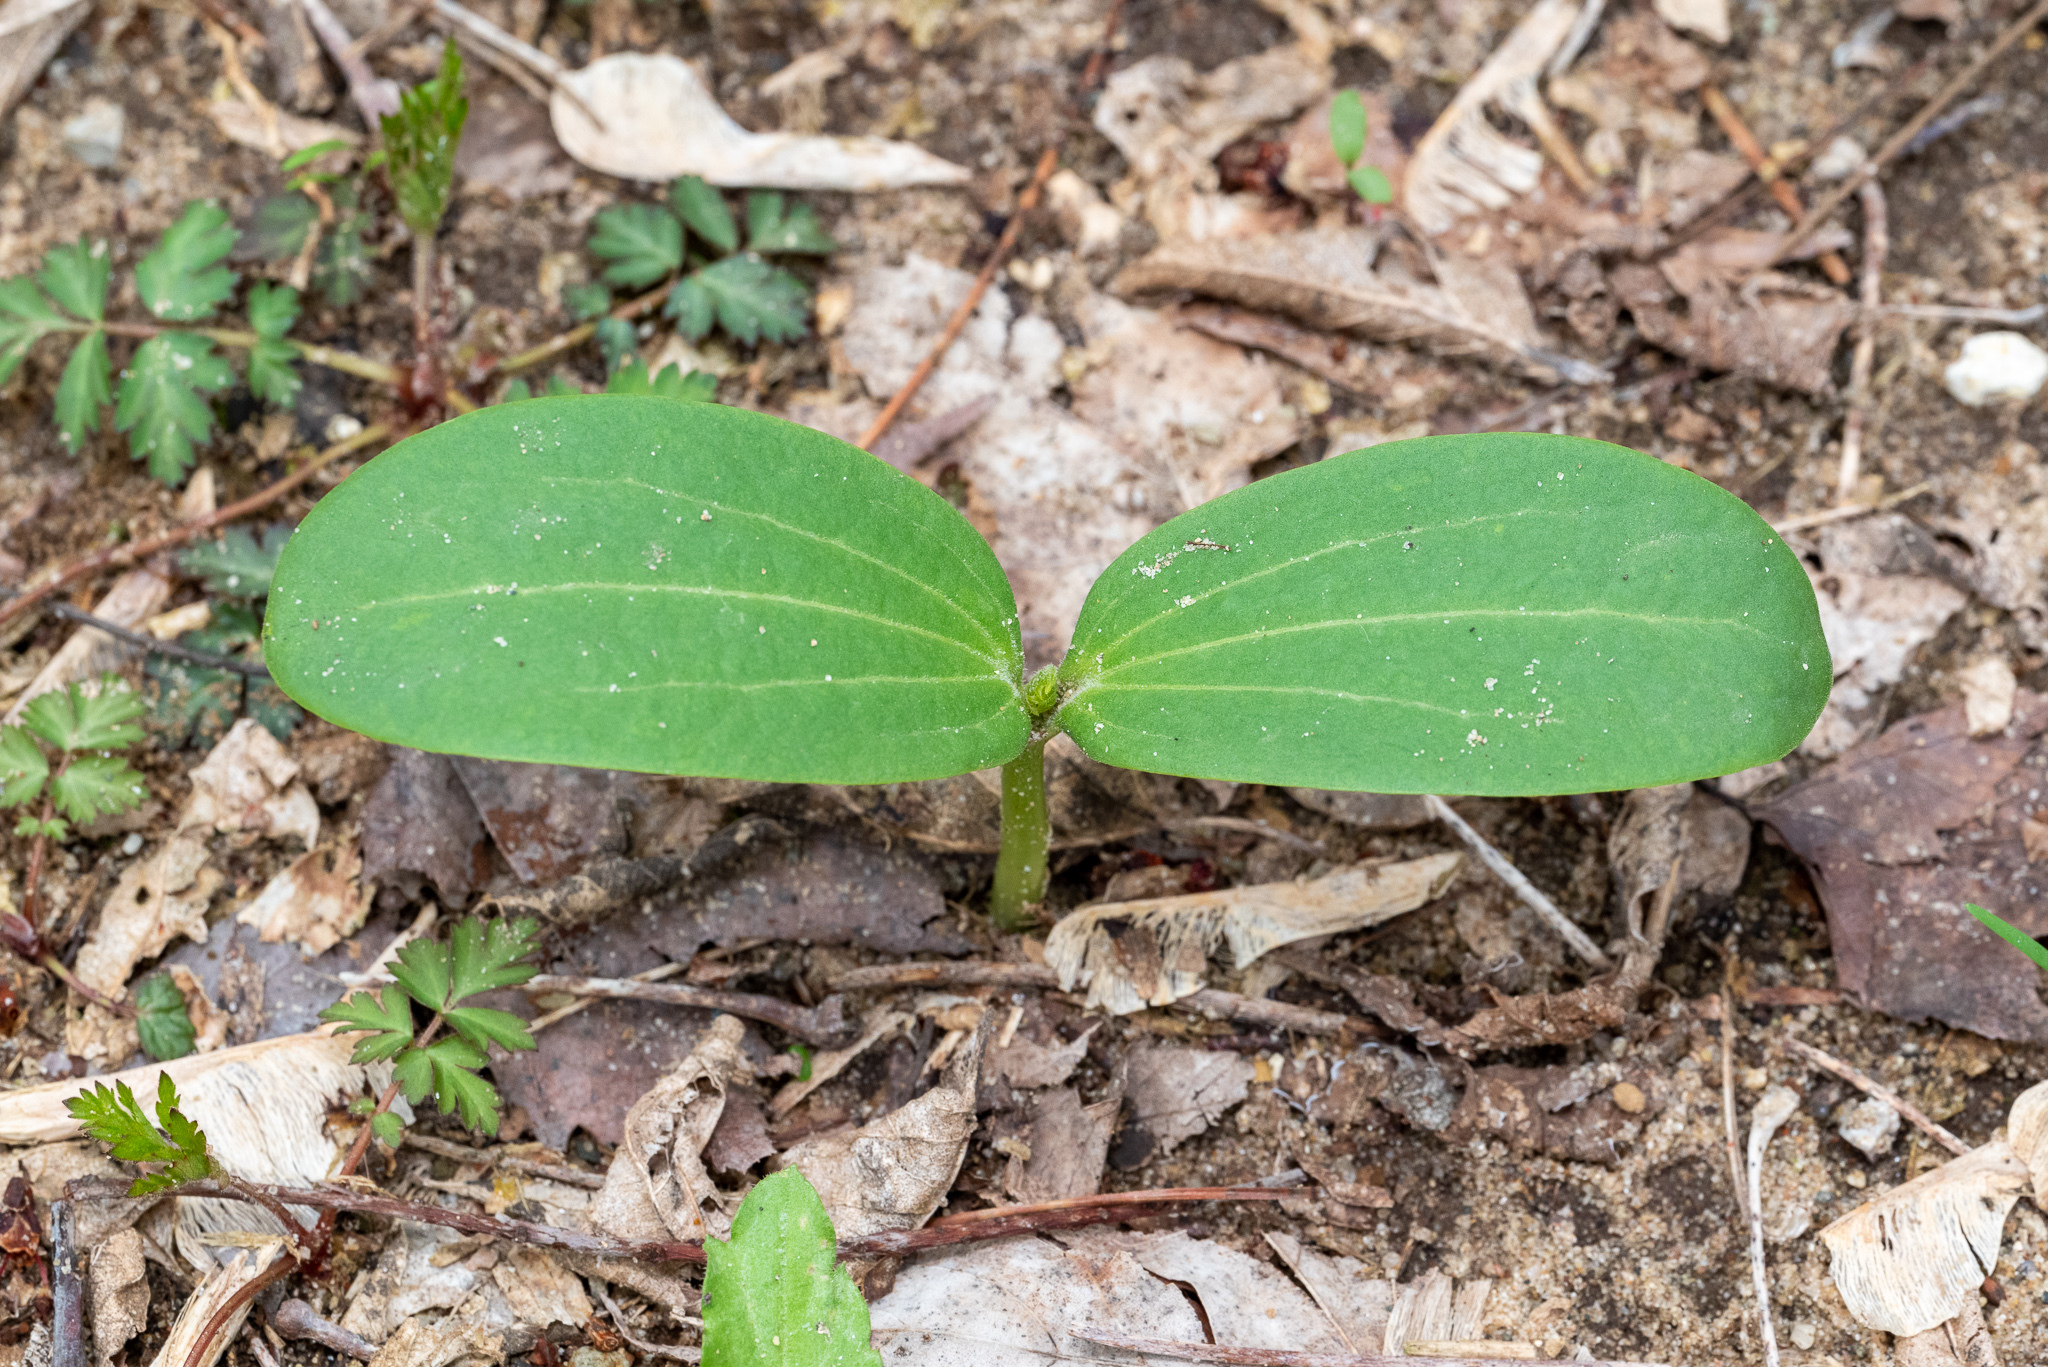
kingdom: Plantae
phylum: Tracheophyta
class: Magnoliopsida
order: Cucurbitales
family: Cucurbitaceae
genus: Echinocystis
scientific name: Echinocystis lobata
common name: Wild cucumber
